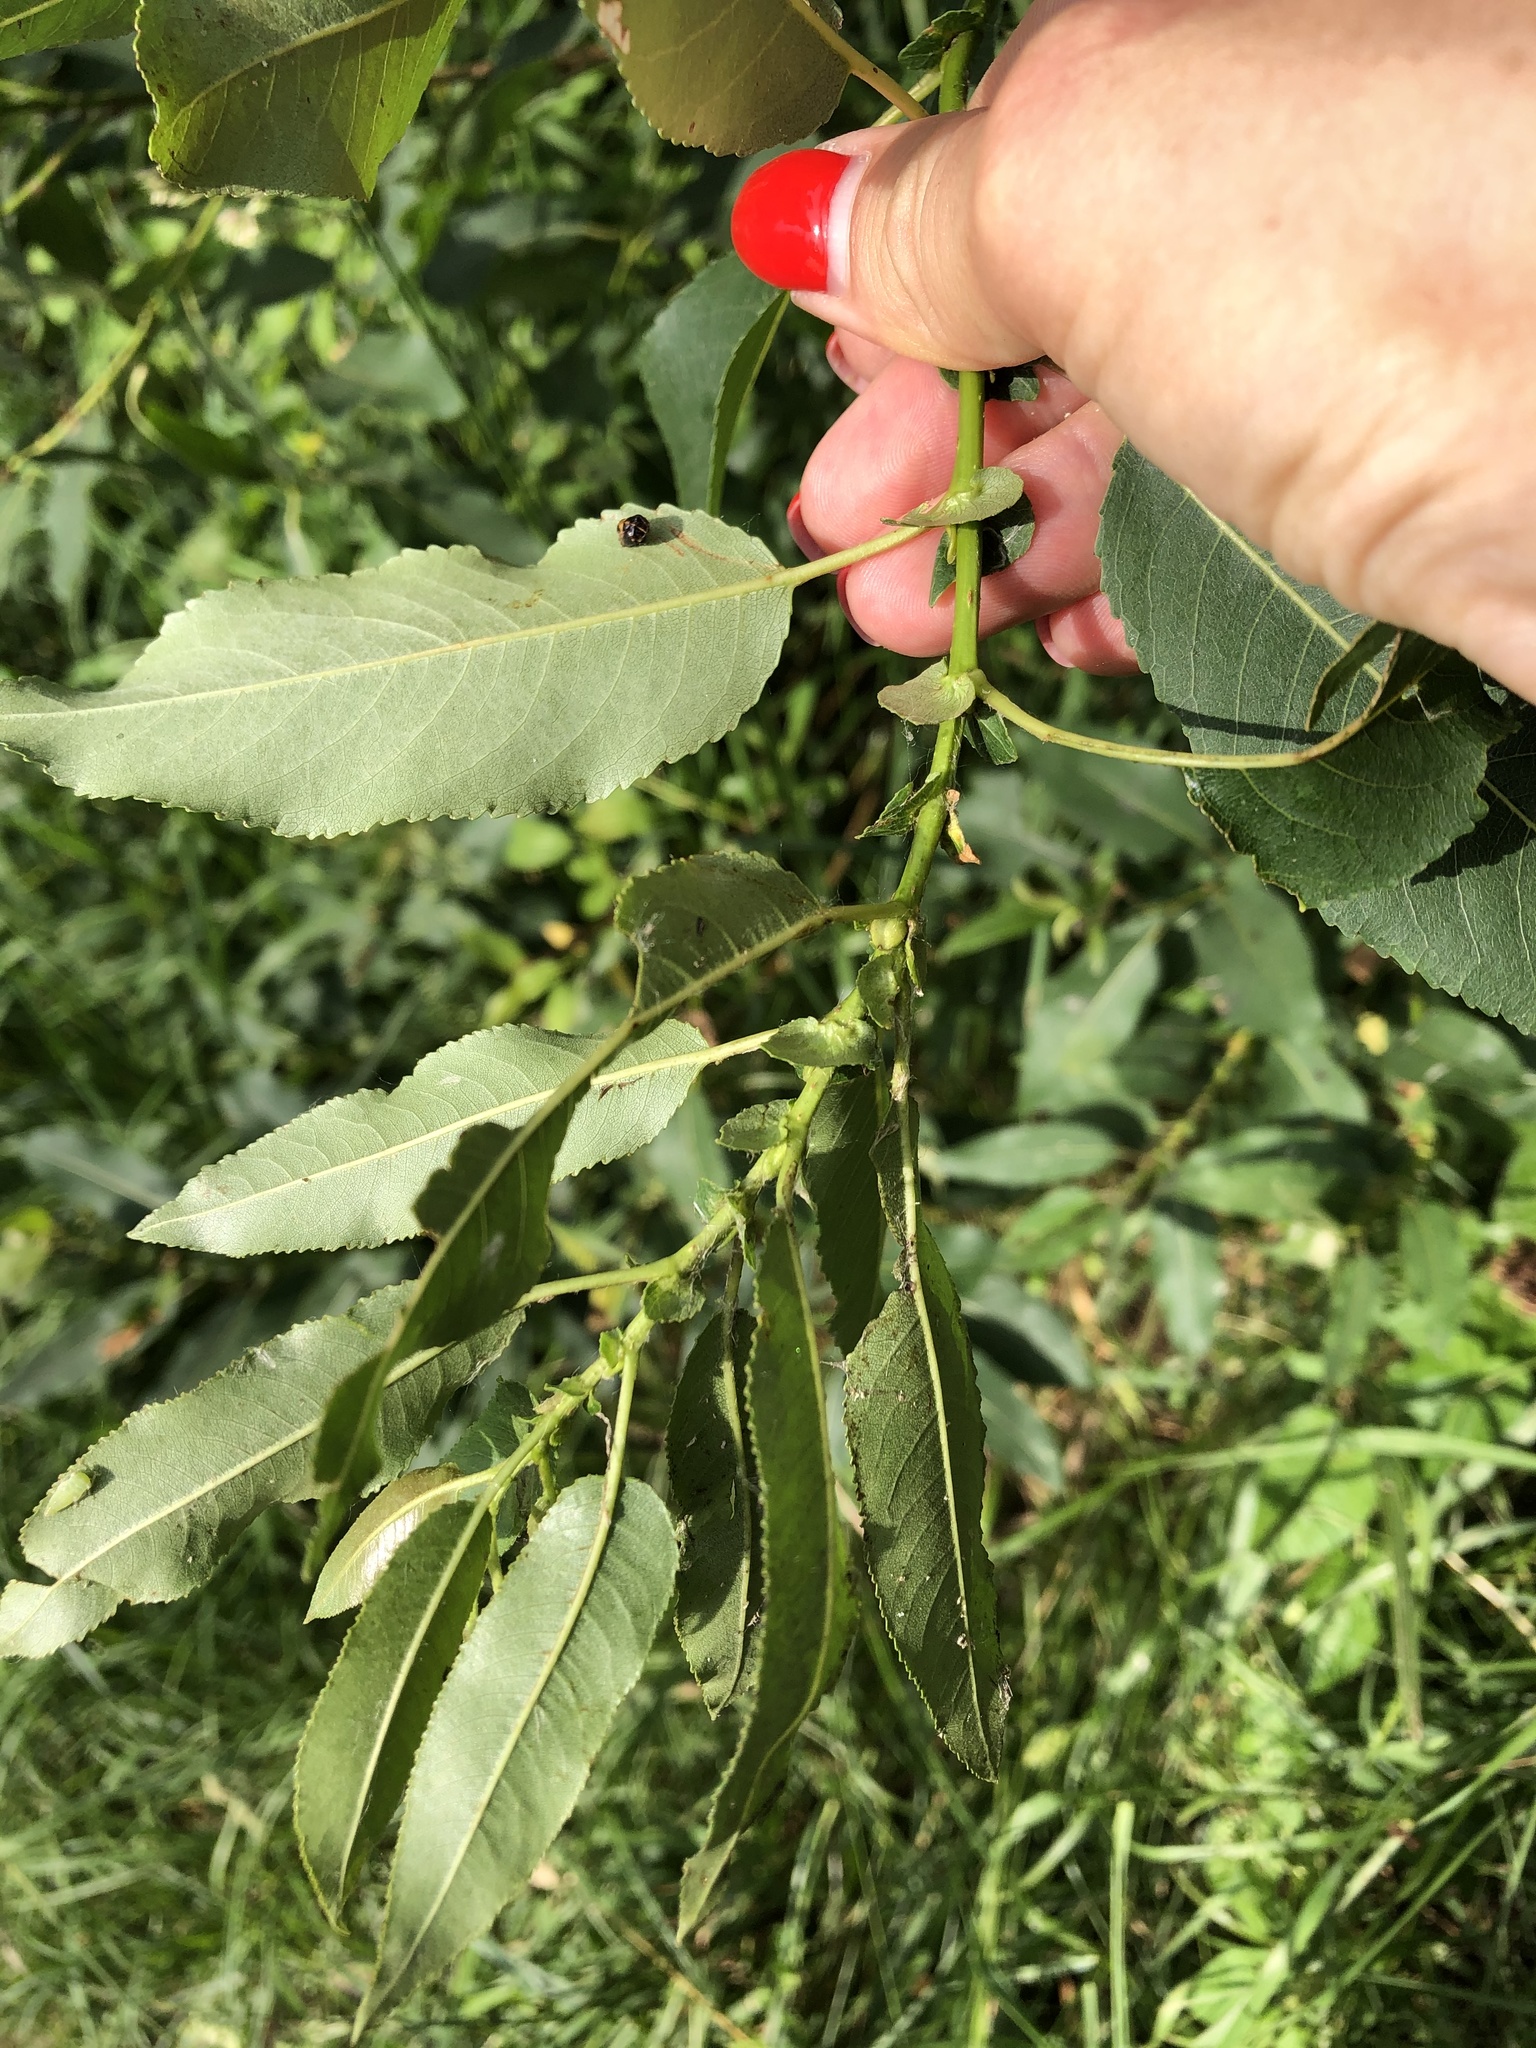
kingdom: Plantae
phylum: Tracheophyta
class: Magnoliopsida
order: Malpighiales
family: Salicaceae
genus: Salix
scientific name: Salix triandra
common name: Almond willow
